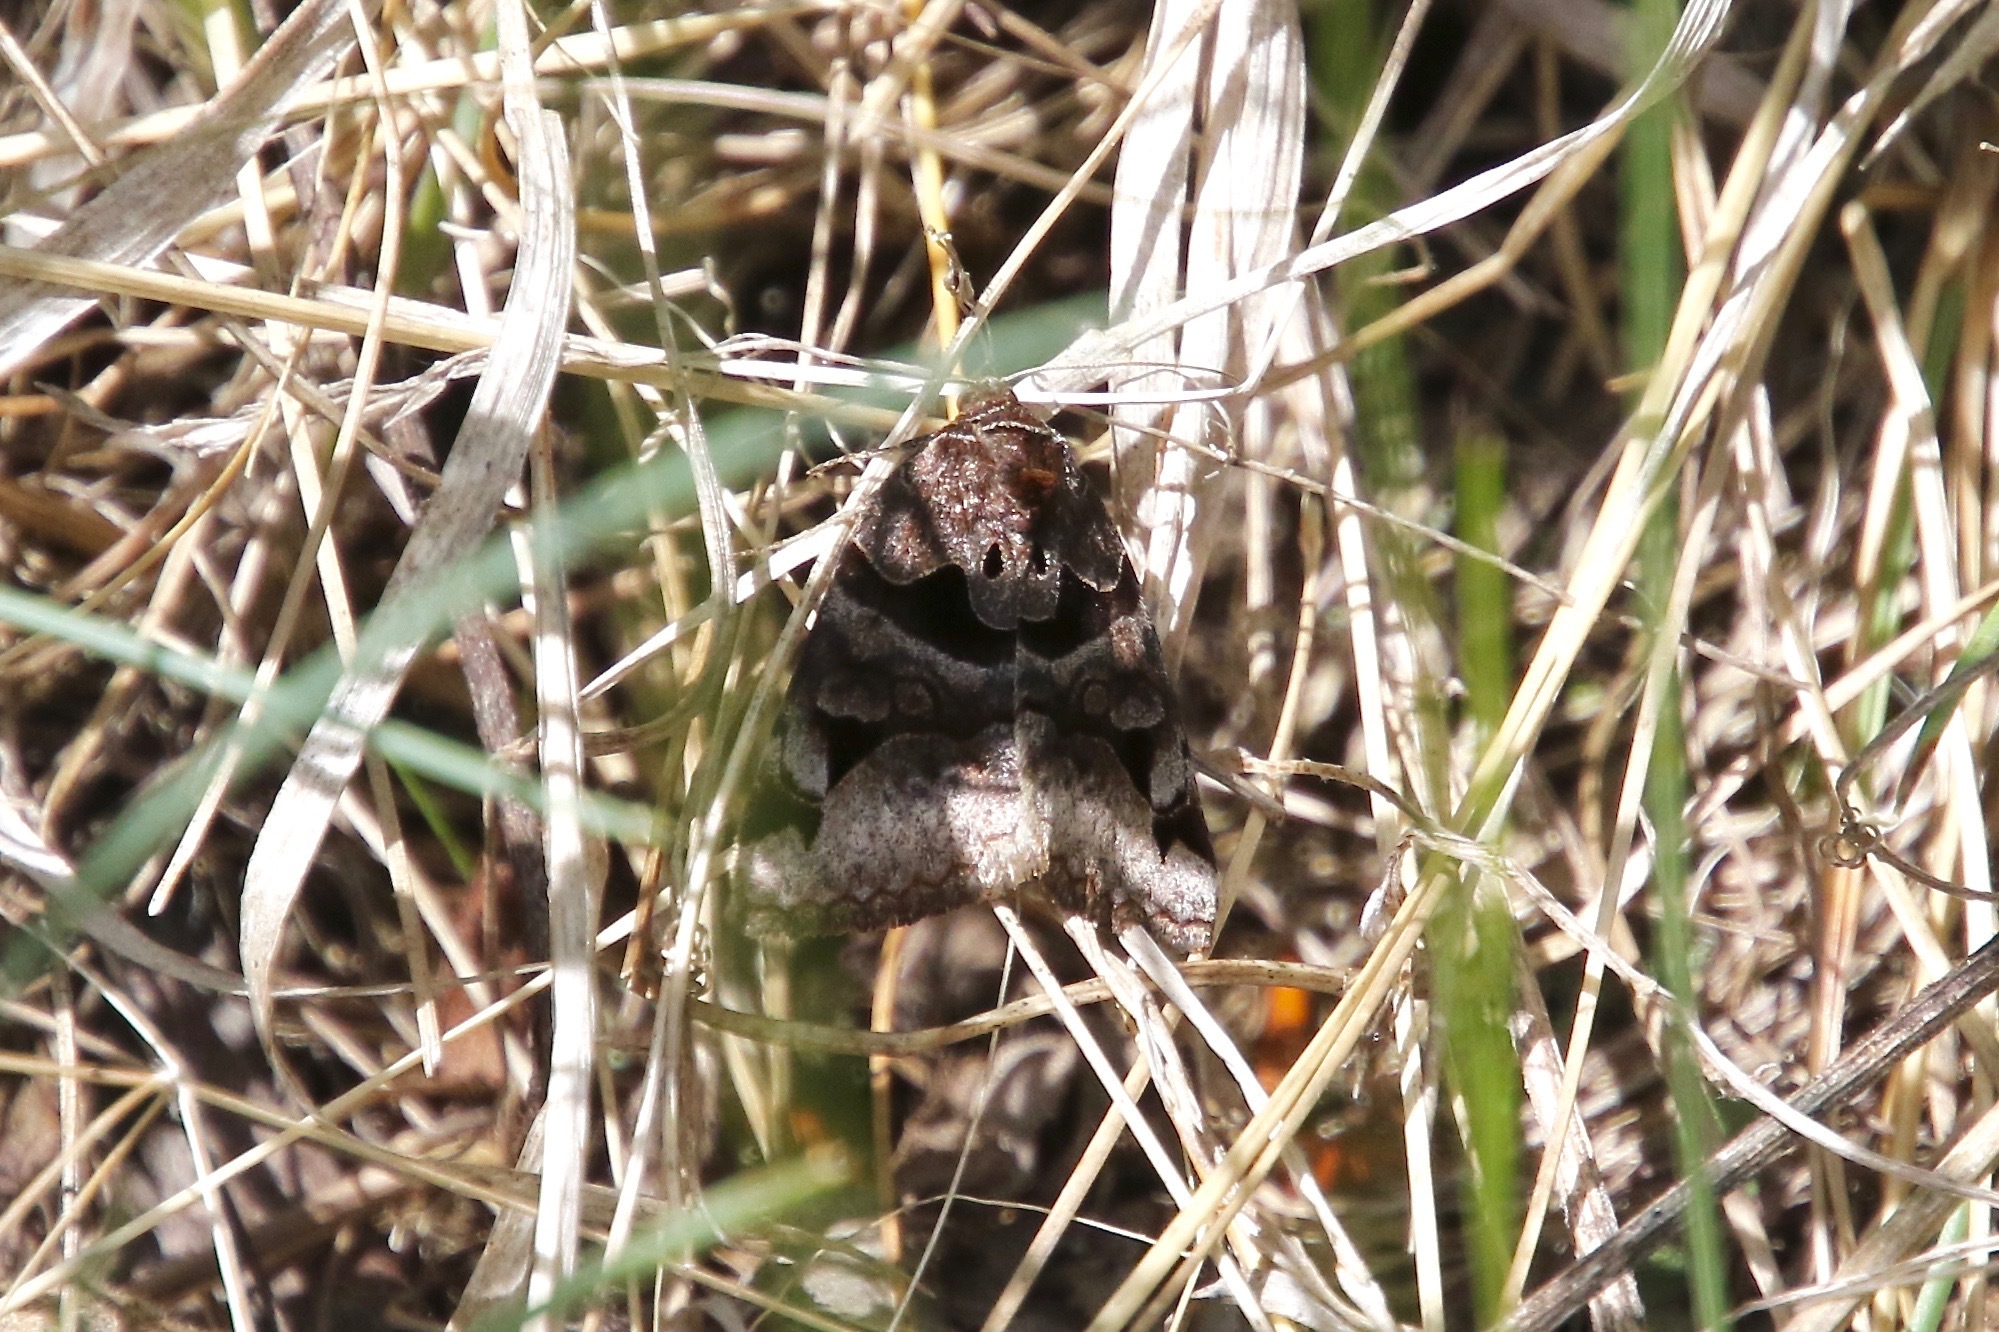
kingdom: Animalia
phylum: Arthropoda
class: Insecta
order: Lepidoptera
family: Erebidae
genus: Euclidia
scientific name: Euclidia cuspidea
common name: Toothed somberwing
